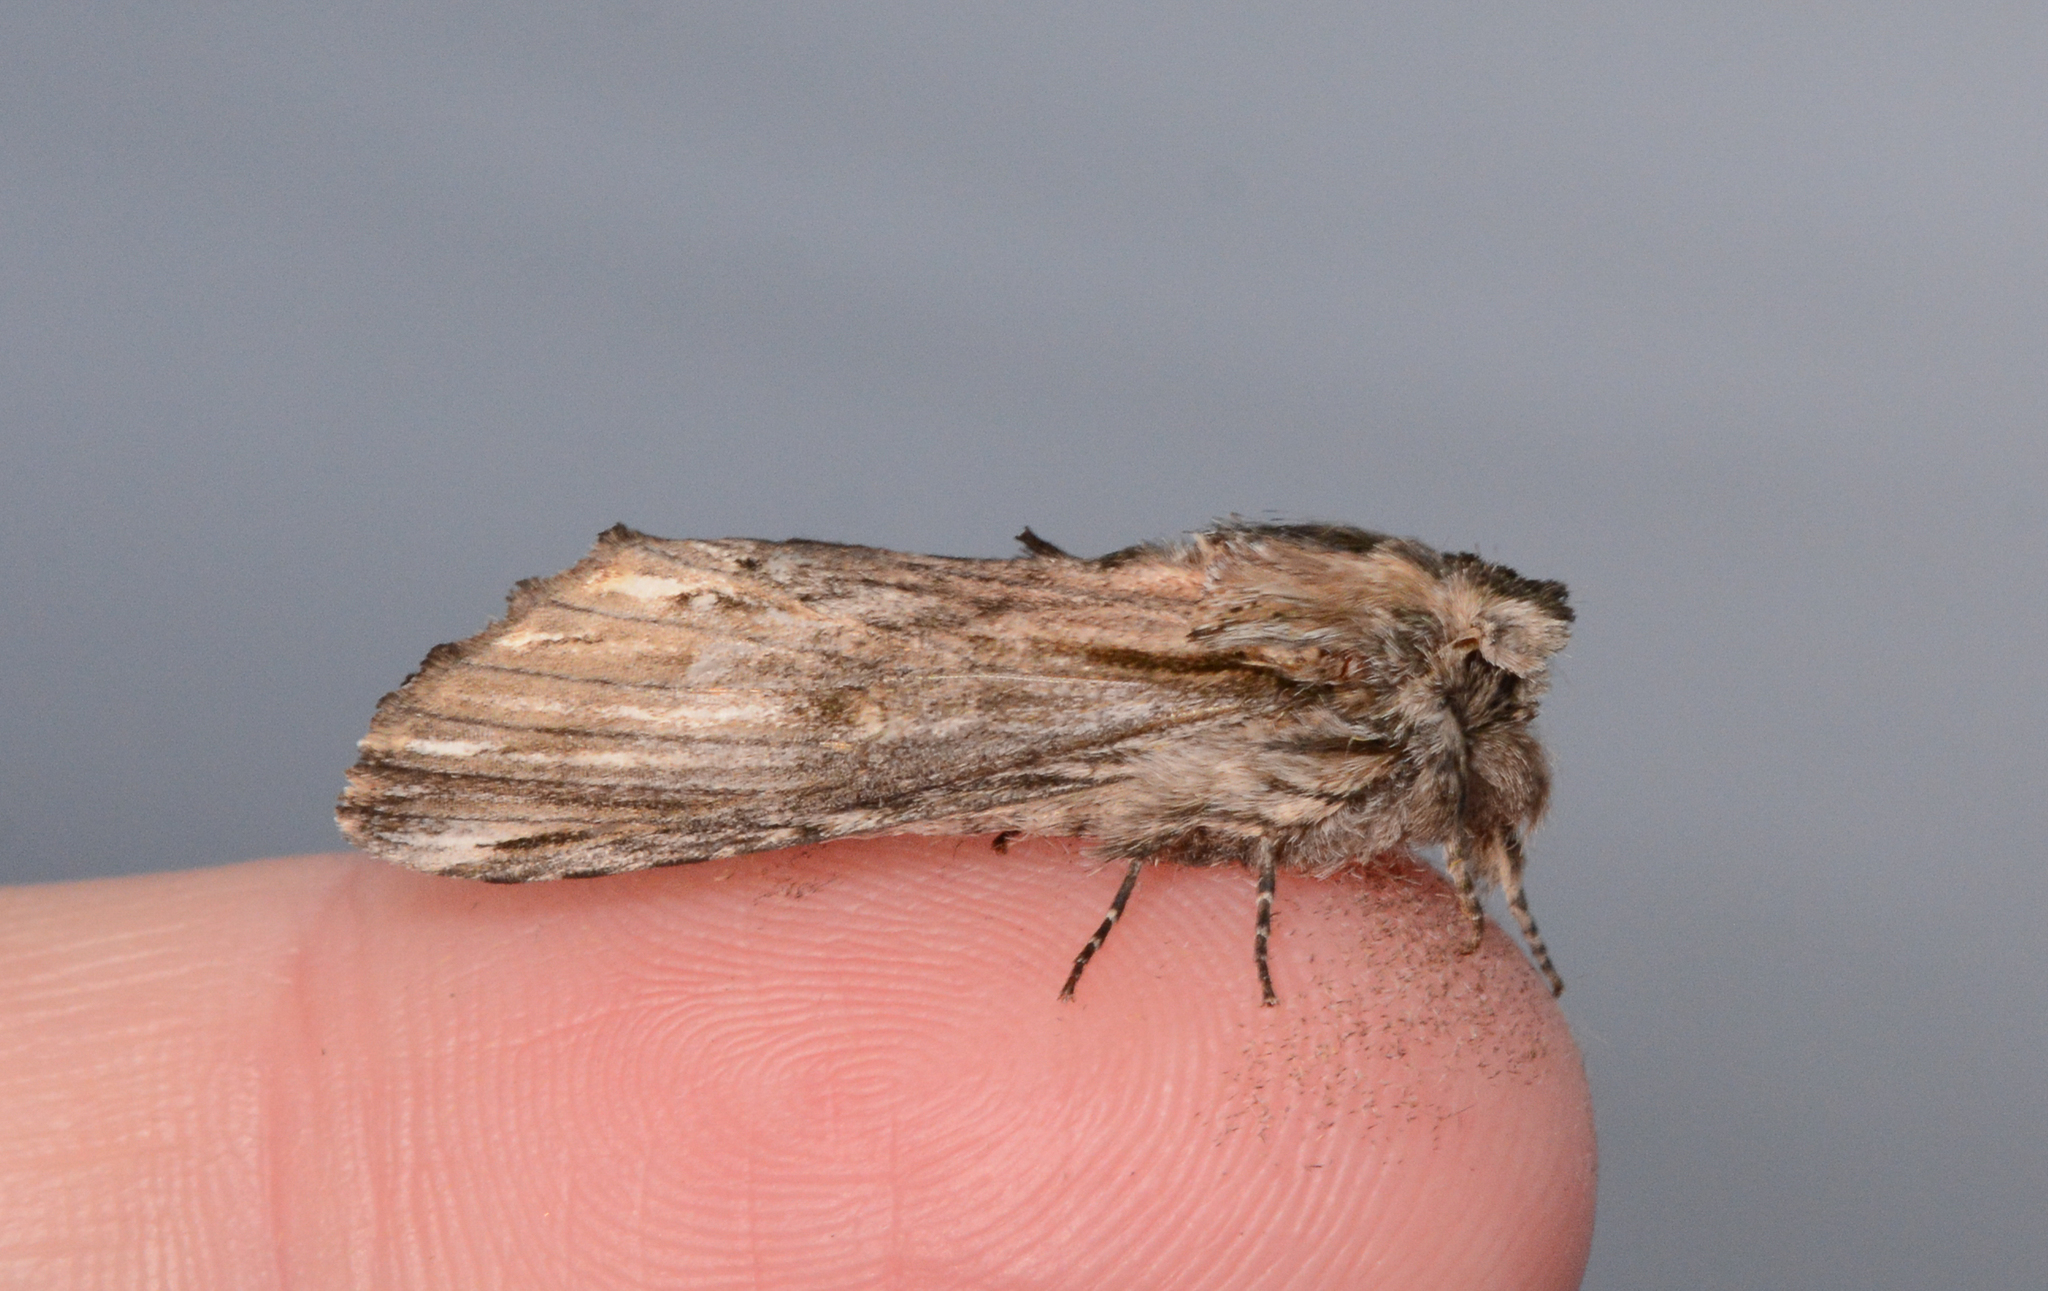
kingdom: Animalia
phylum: Arthropoda
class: Insecta
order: Lepidoptera
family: Notodontidae
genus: Oligocentria
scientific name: Oligocentria Ianassa lignicolor
